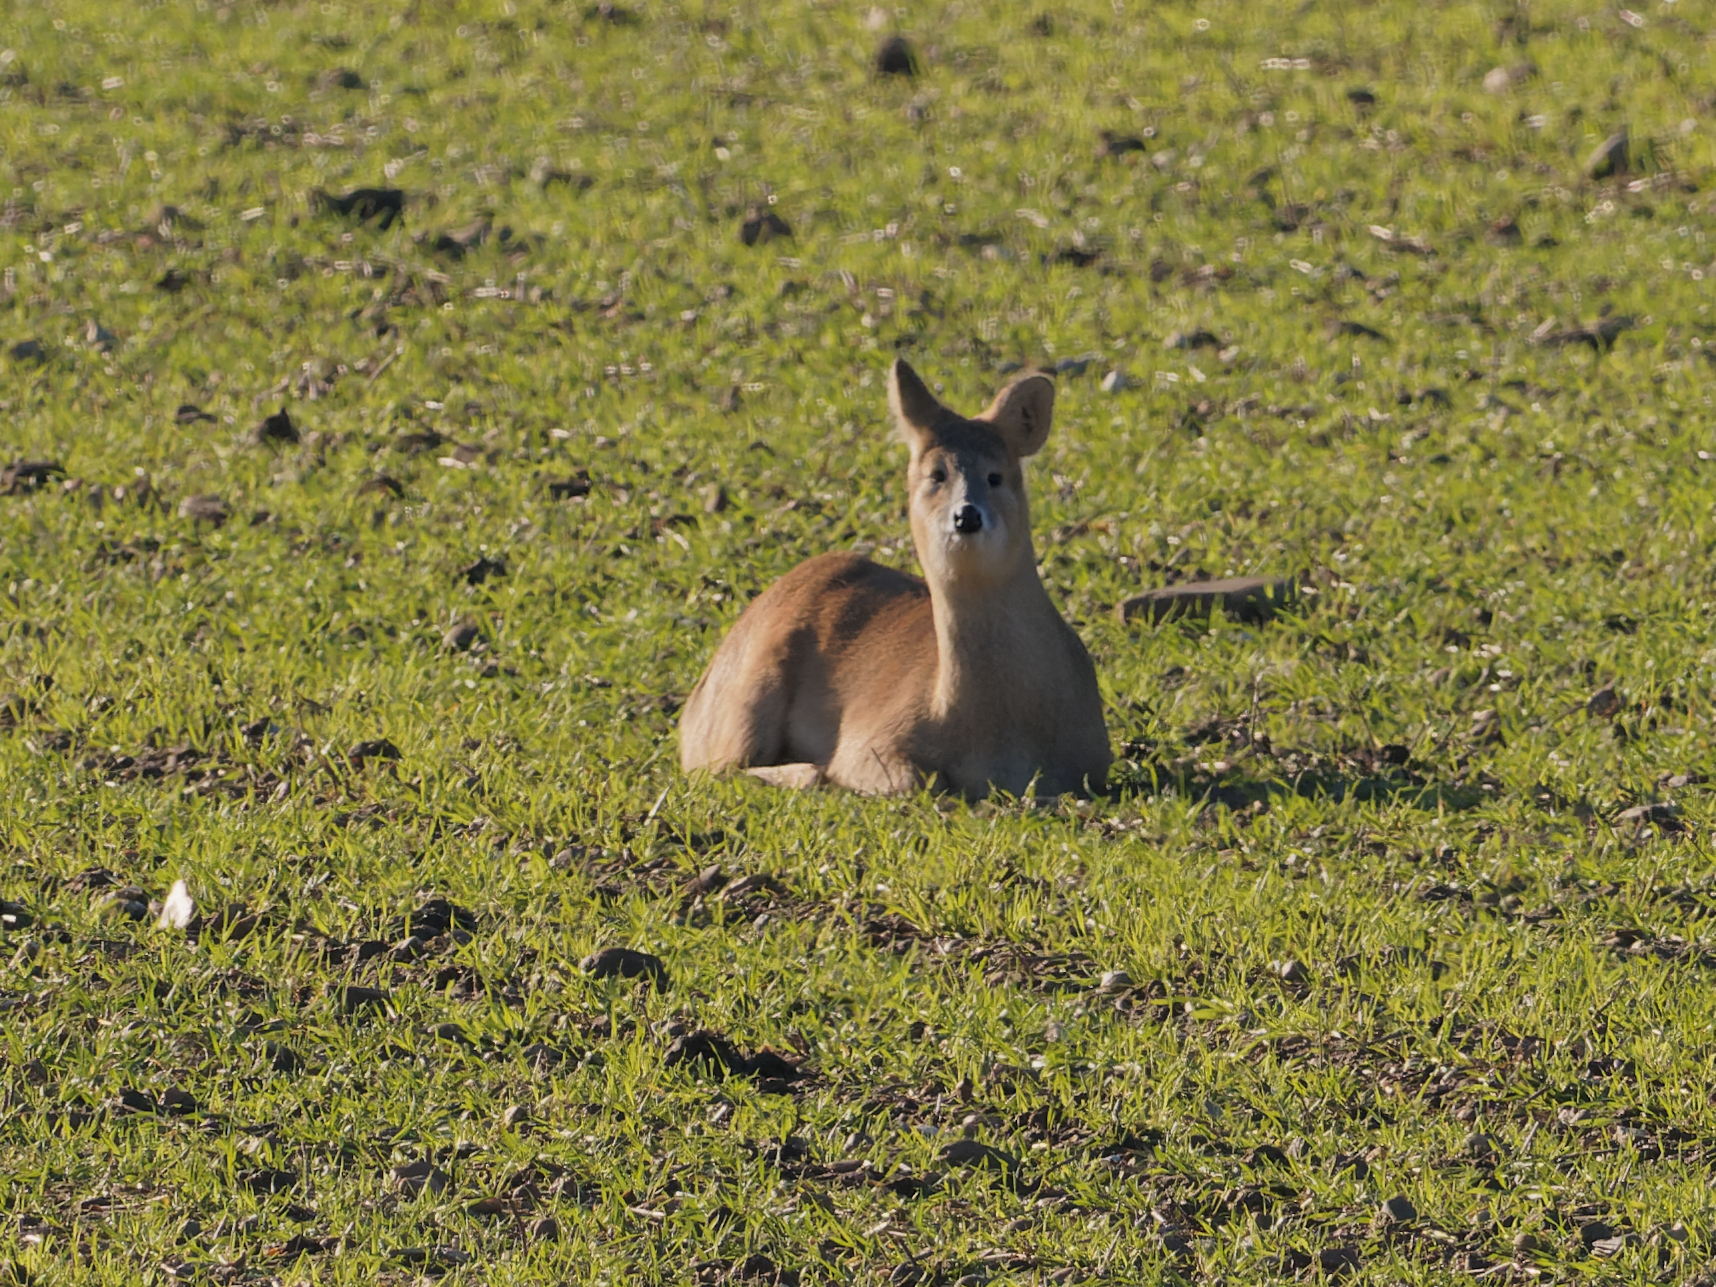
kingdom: Animalia
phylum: Chordata
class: Mammalia
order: Artiodactyla
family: Cervidae
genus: Hydropotes
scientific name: Hydropotes inermis
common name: Chinese water deer
